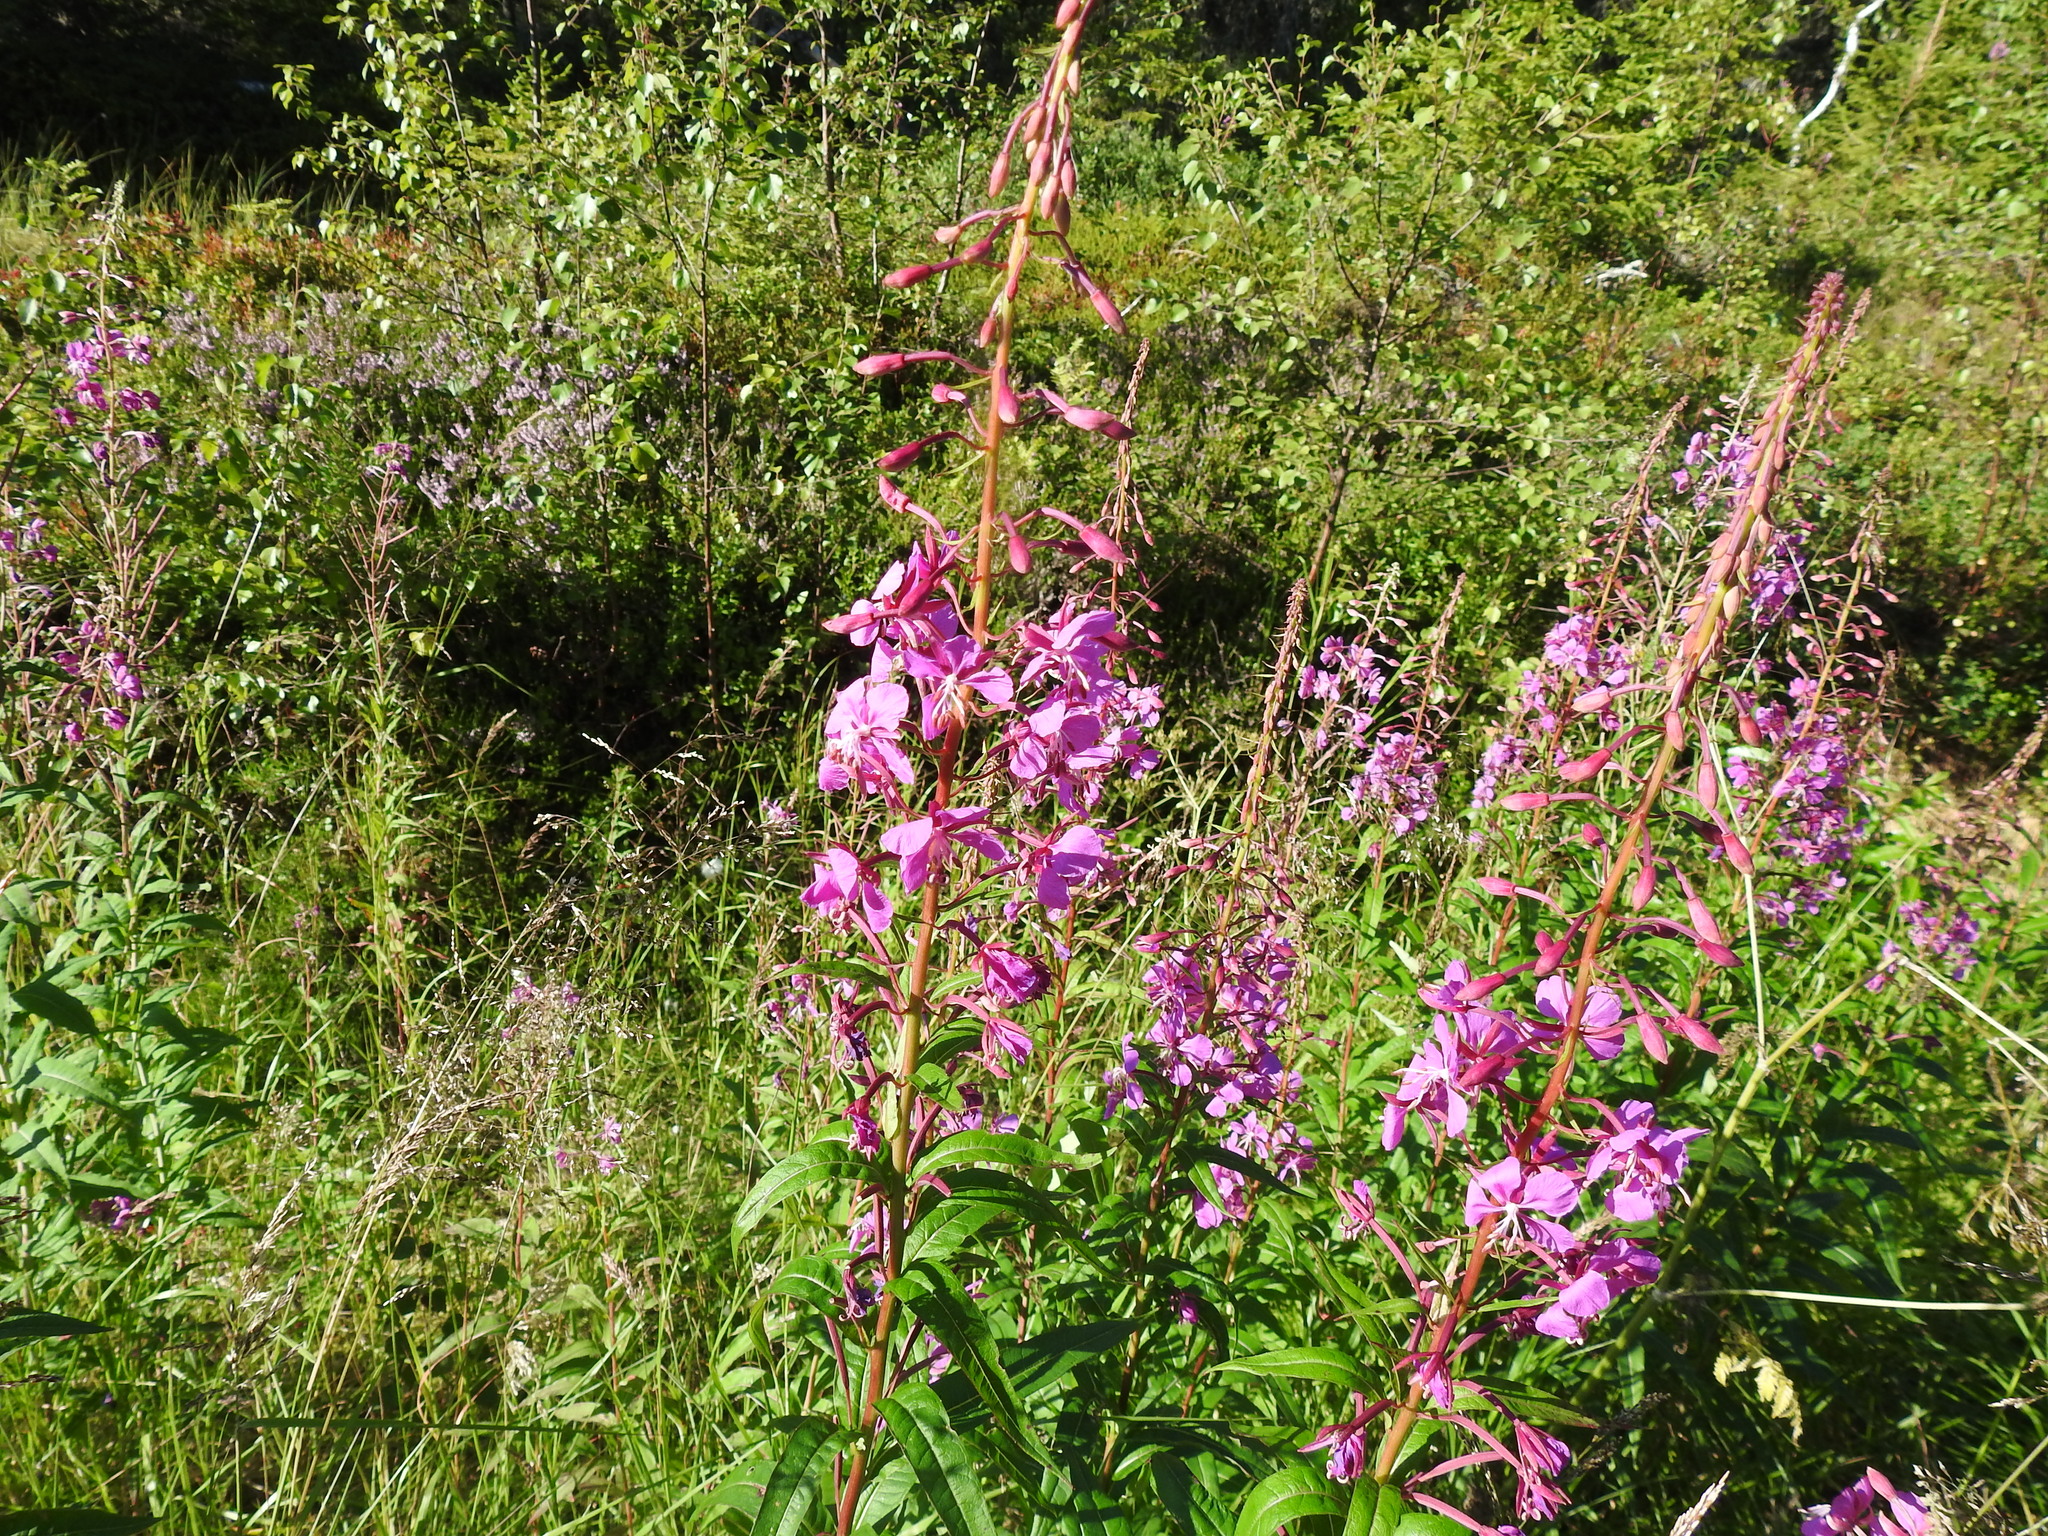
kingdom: Plantae
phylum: Tracheophyta
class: Magnoliopsida
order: Myrtales
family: Onagraceae
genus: Chamaenerion
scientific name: Chamaenerion angustifolium
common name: Fireweed
